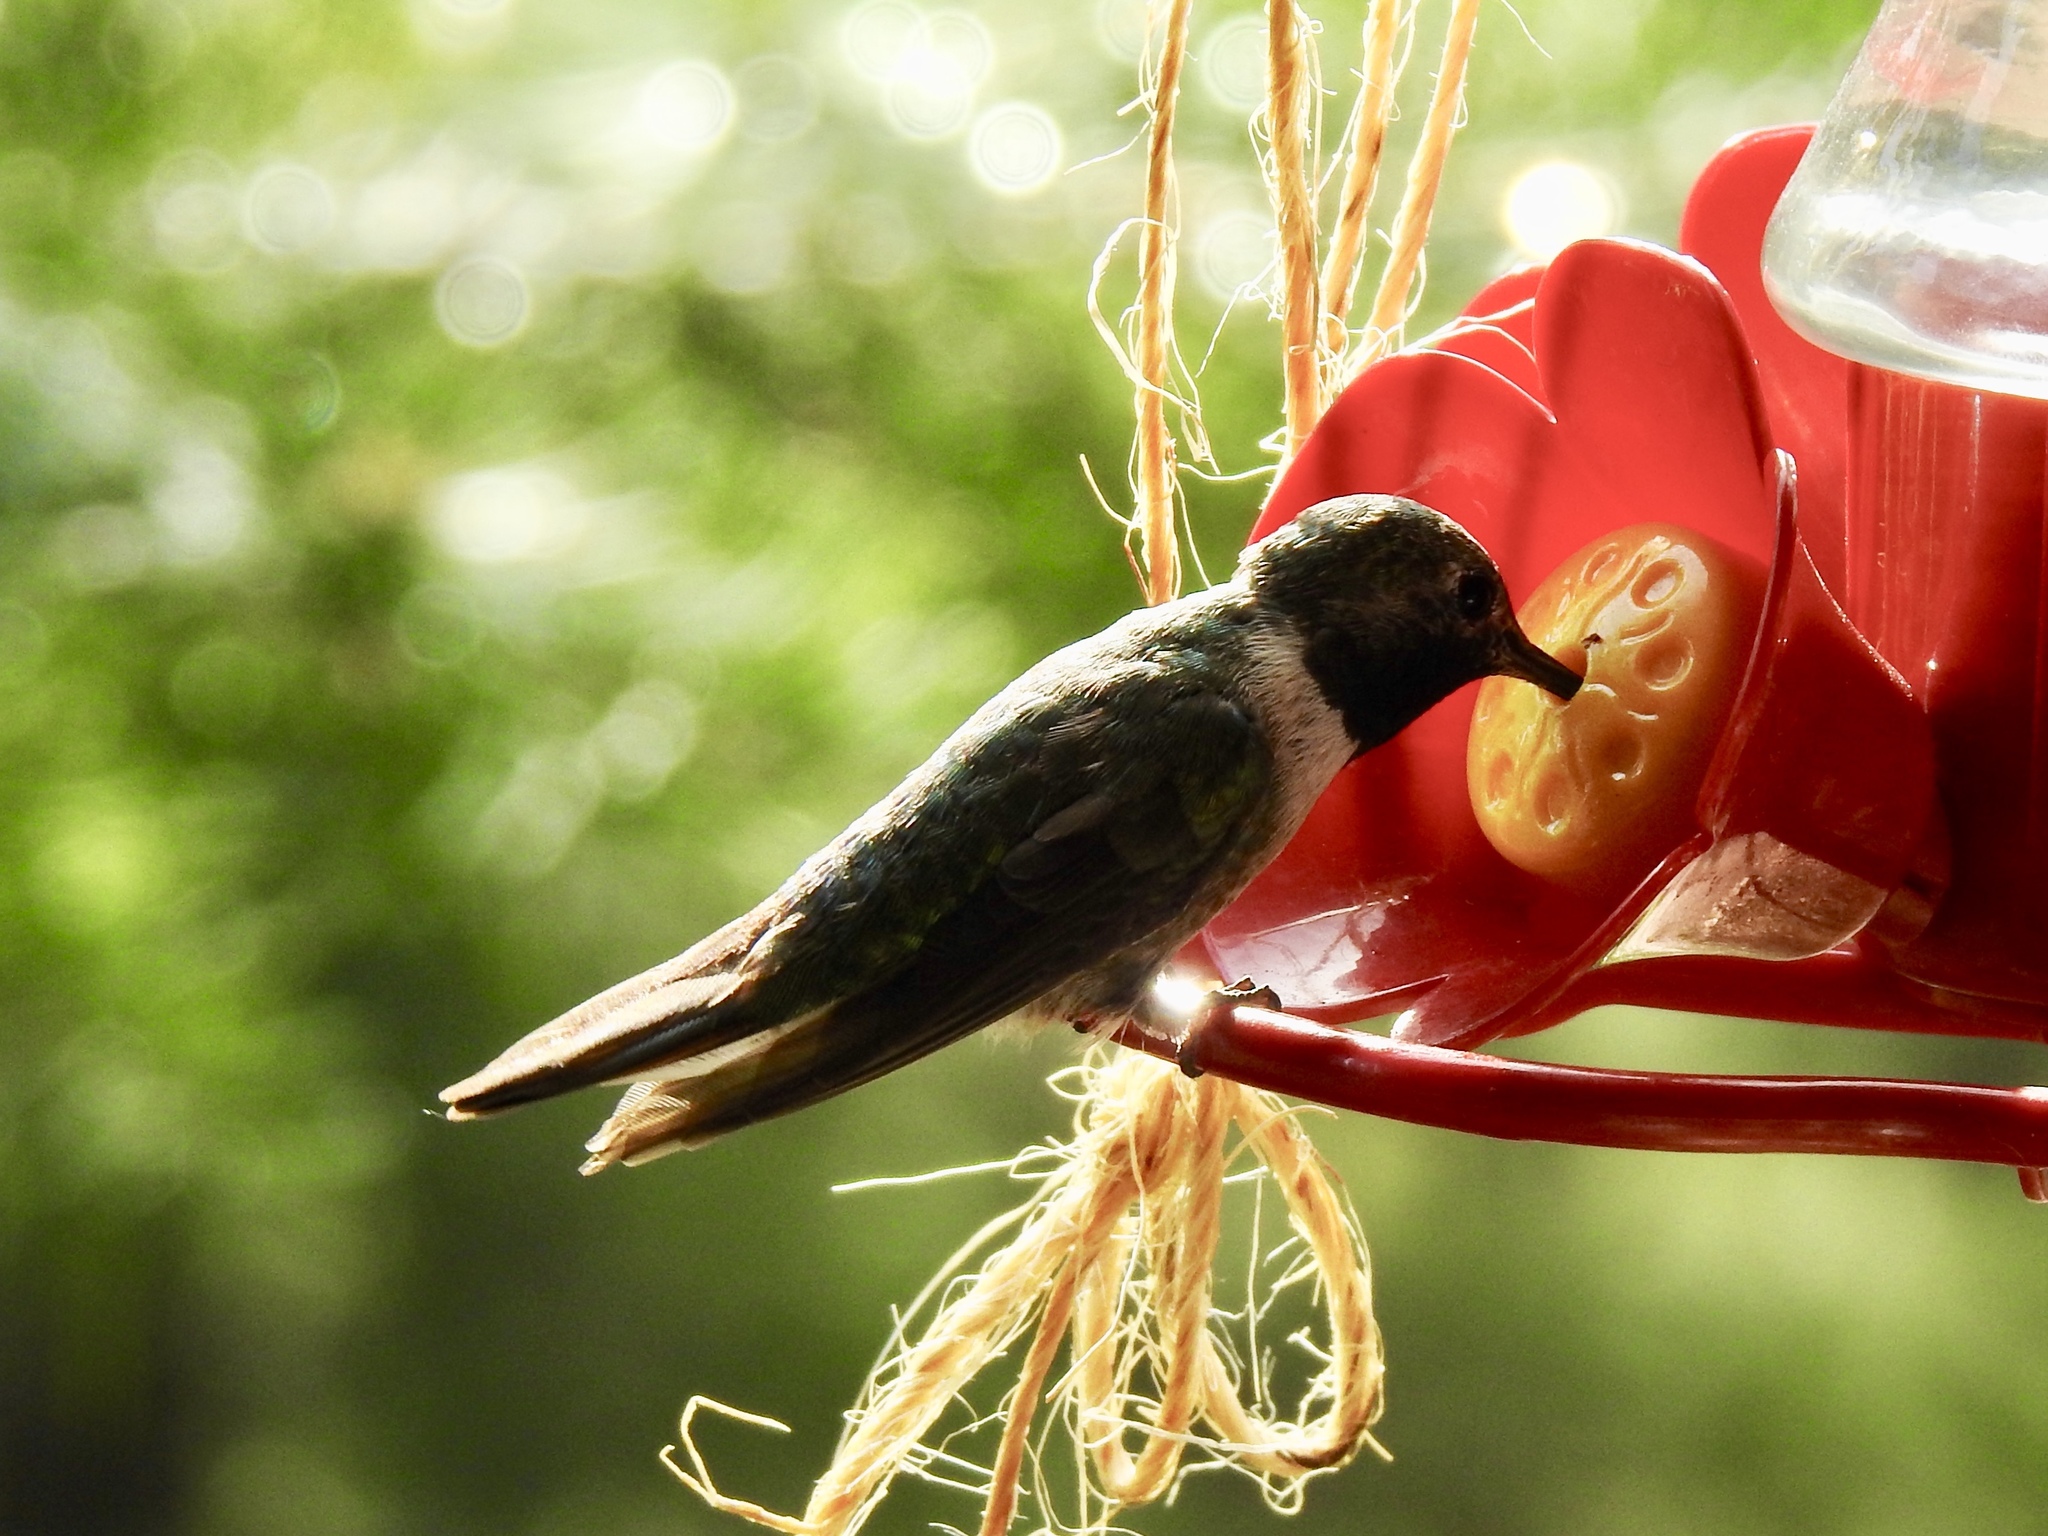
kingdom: Animalia
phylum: Chordata
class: Aves
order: Apodiformes
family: Trochilidae
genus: Archilochus
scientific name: Archilochus alexandri
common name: Black-chinned hummingbird
